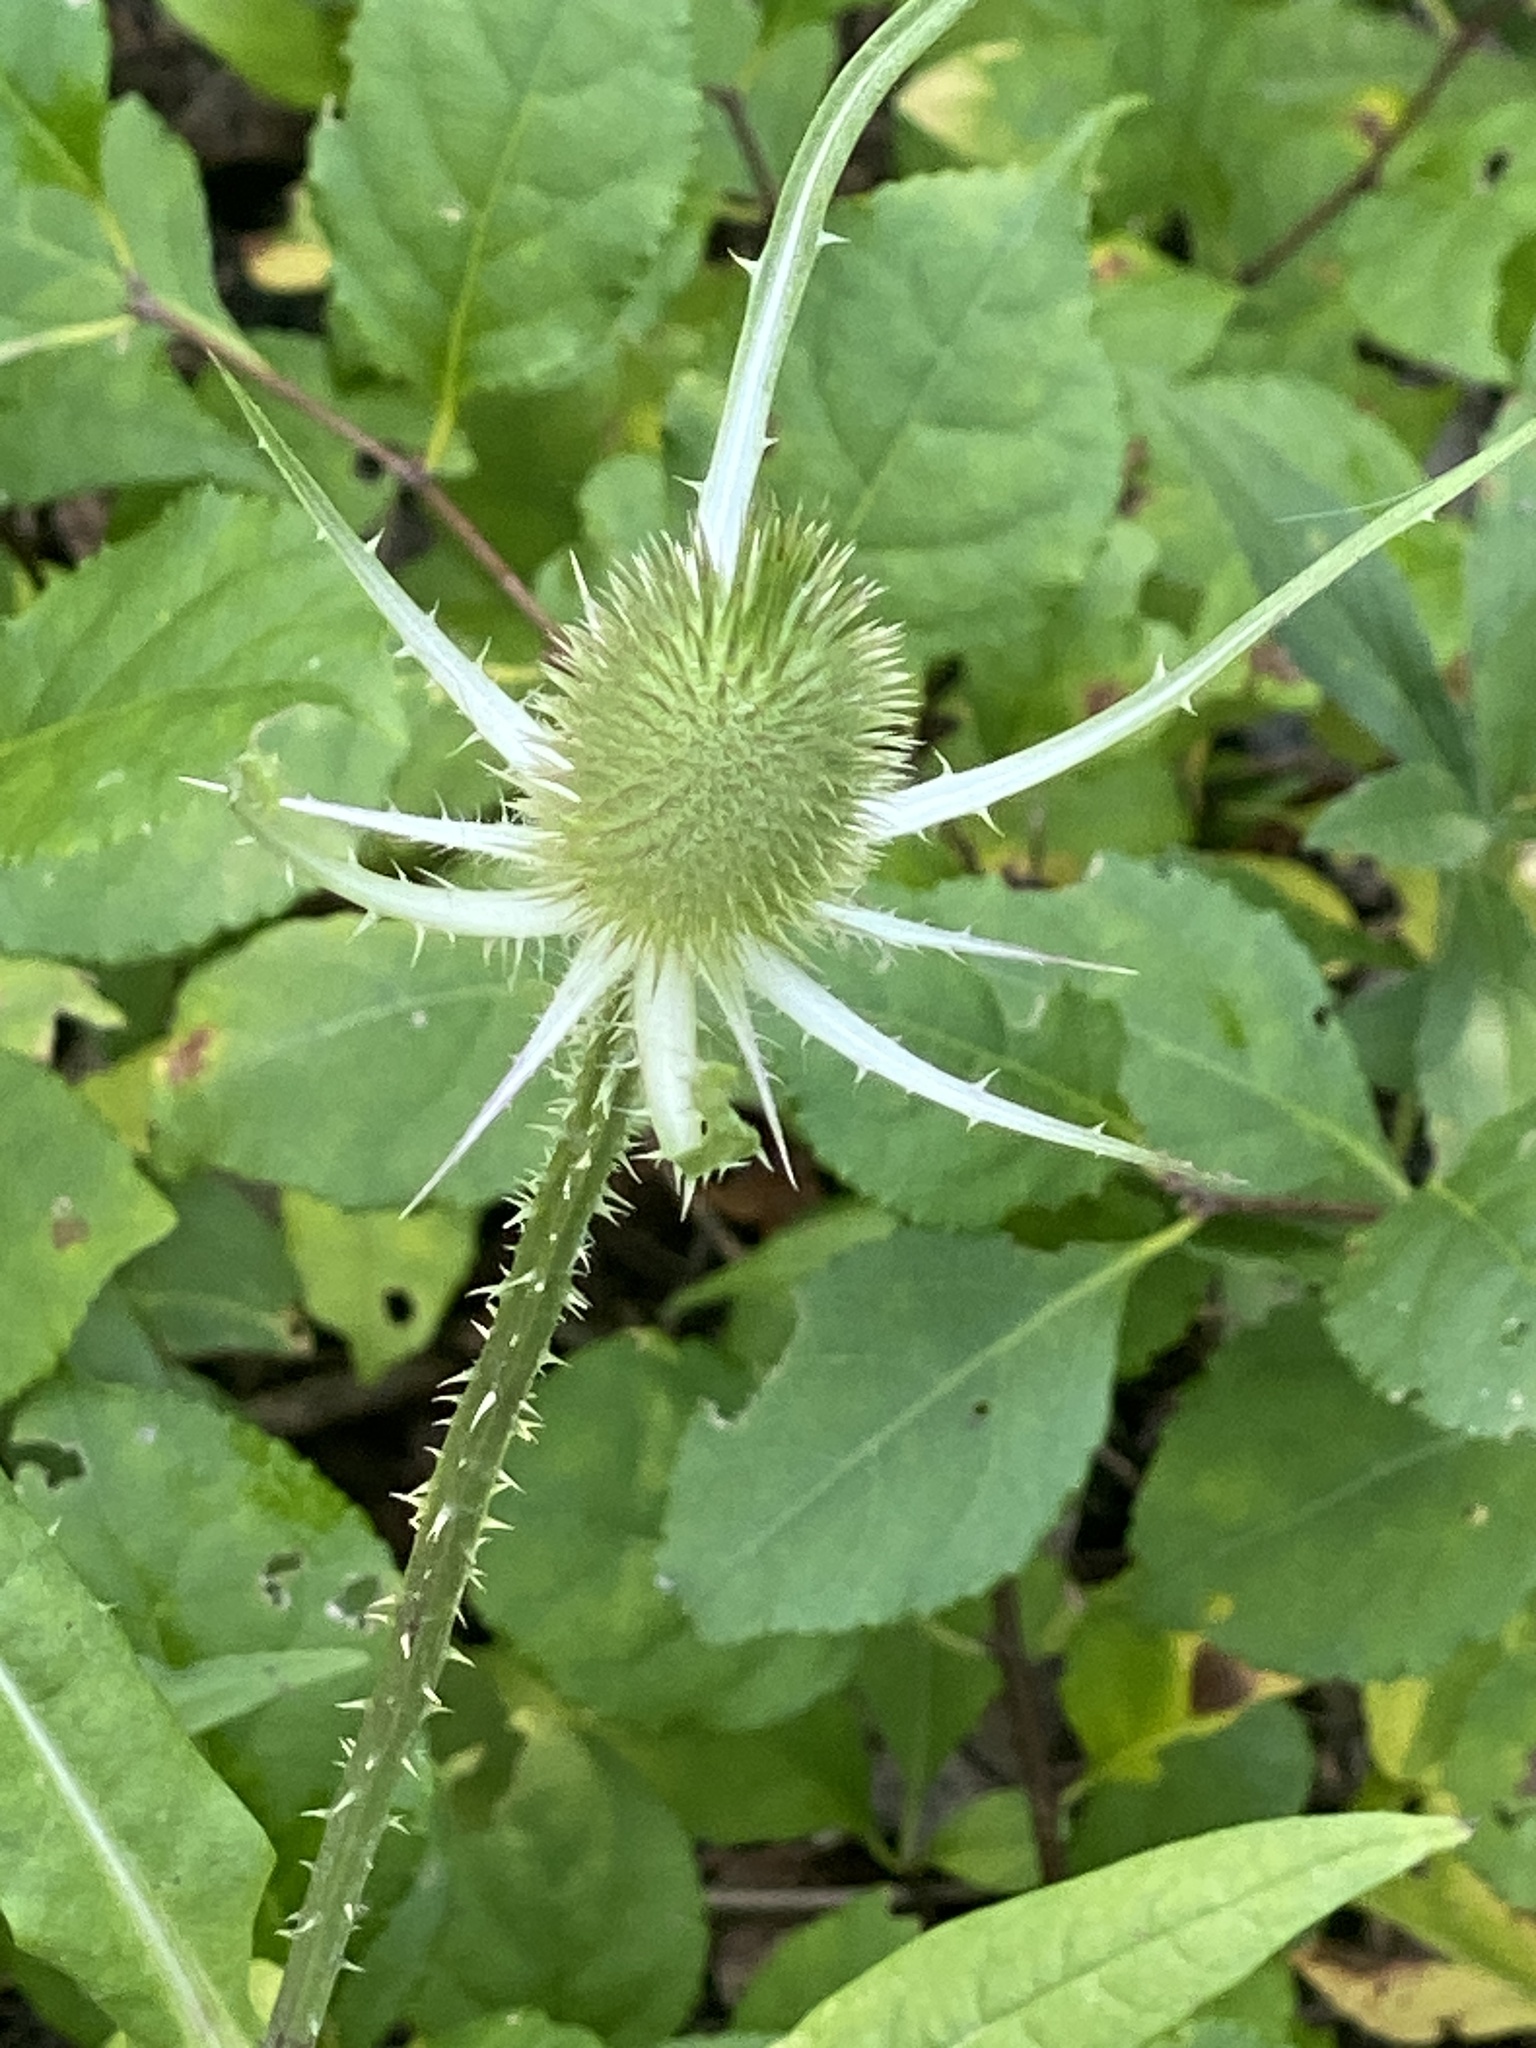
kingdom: Plantae
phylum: Tracheophyta
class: Magnoliopsida
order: Dipsacales
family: Caprifoliaceae
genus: Dipsacus
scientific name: Dipsacus fullonum
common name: Teasel
